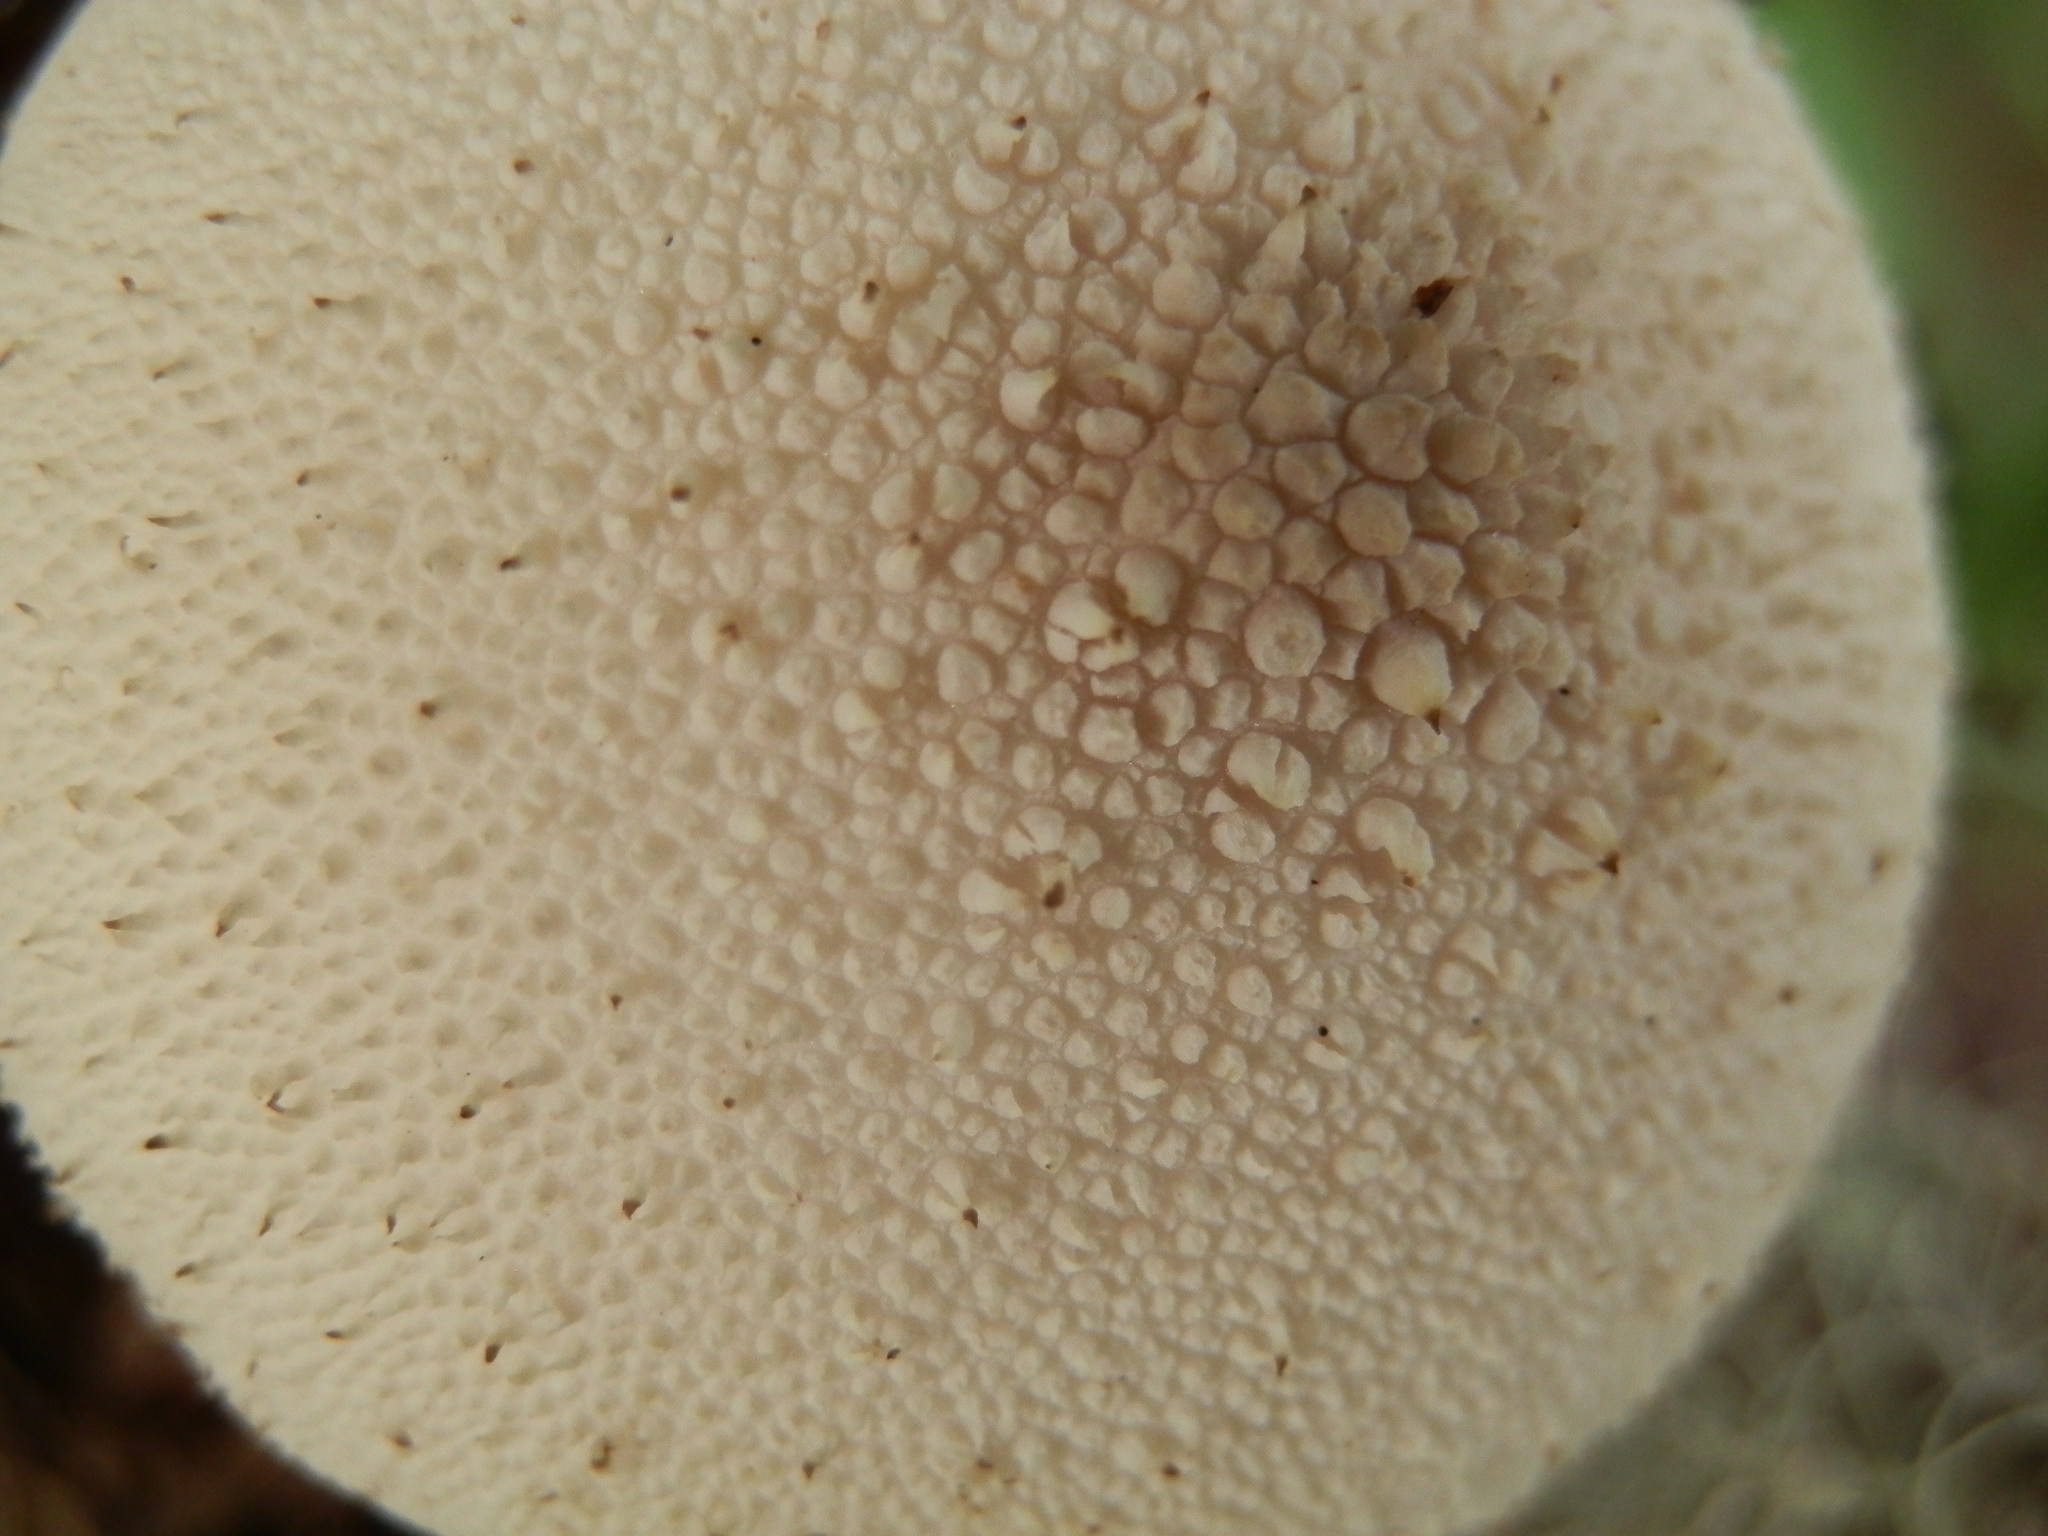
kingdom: Fungi
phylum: Basidiomycota
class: Agaricomycetes
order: Agaricales
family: Lycoperdaceae
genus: Lycoperdon
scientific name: Lycoperdon perlatum
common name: Common puffball
